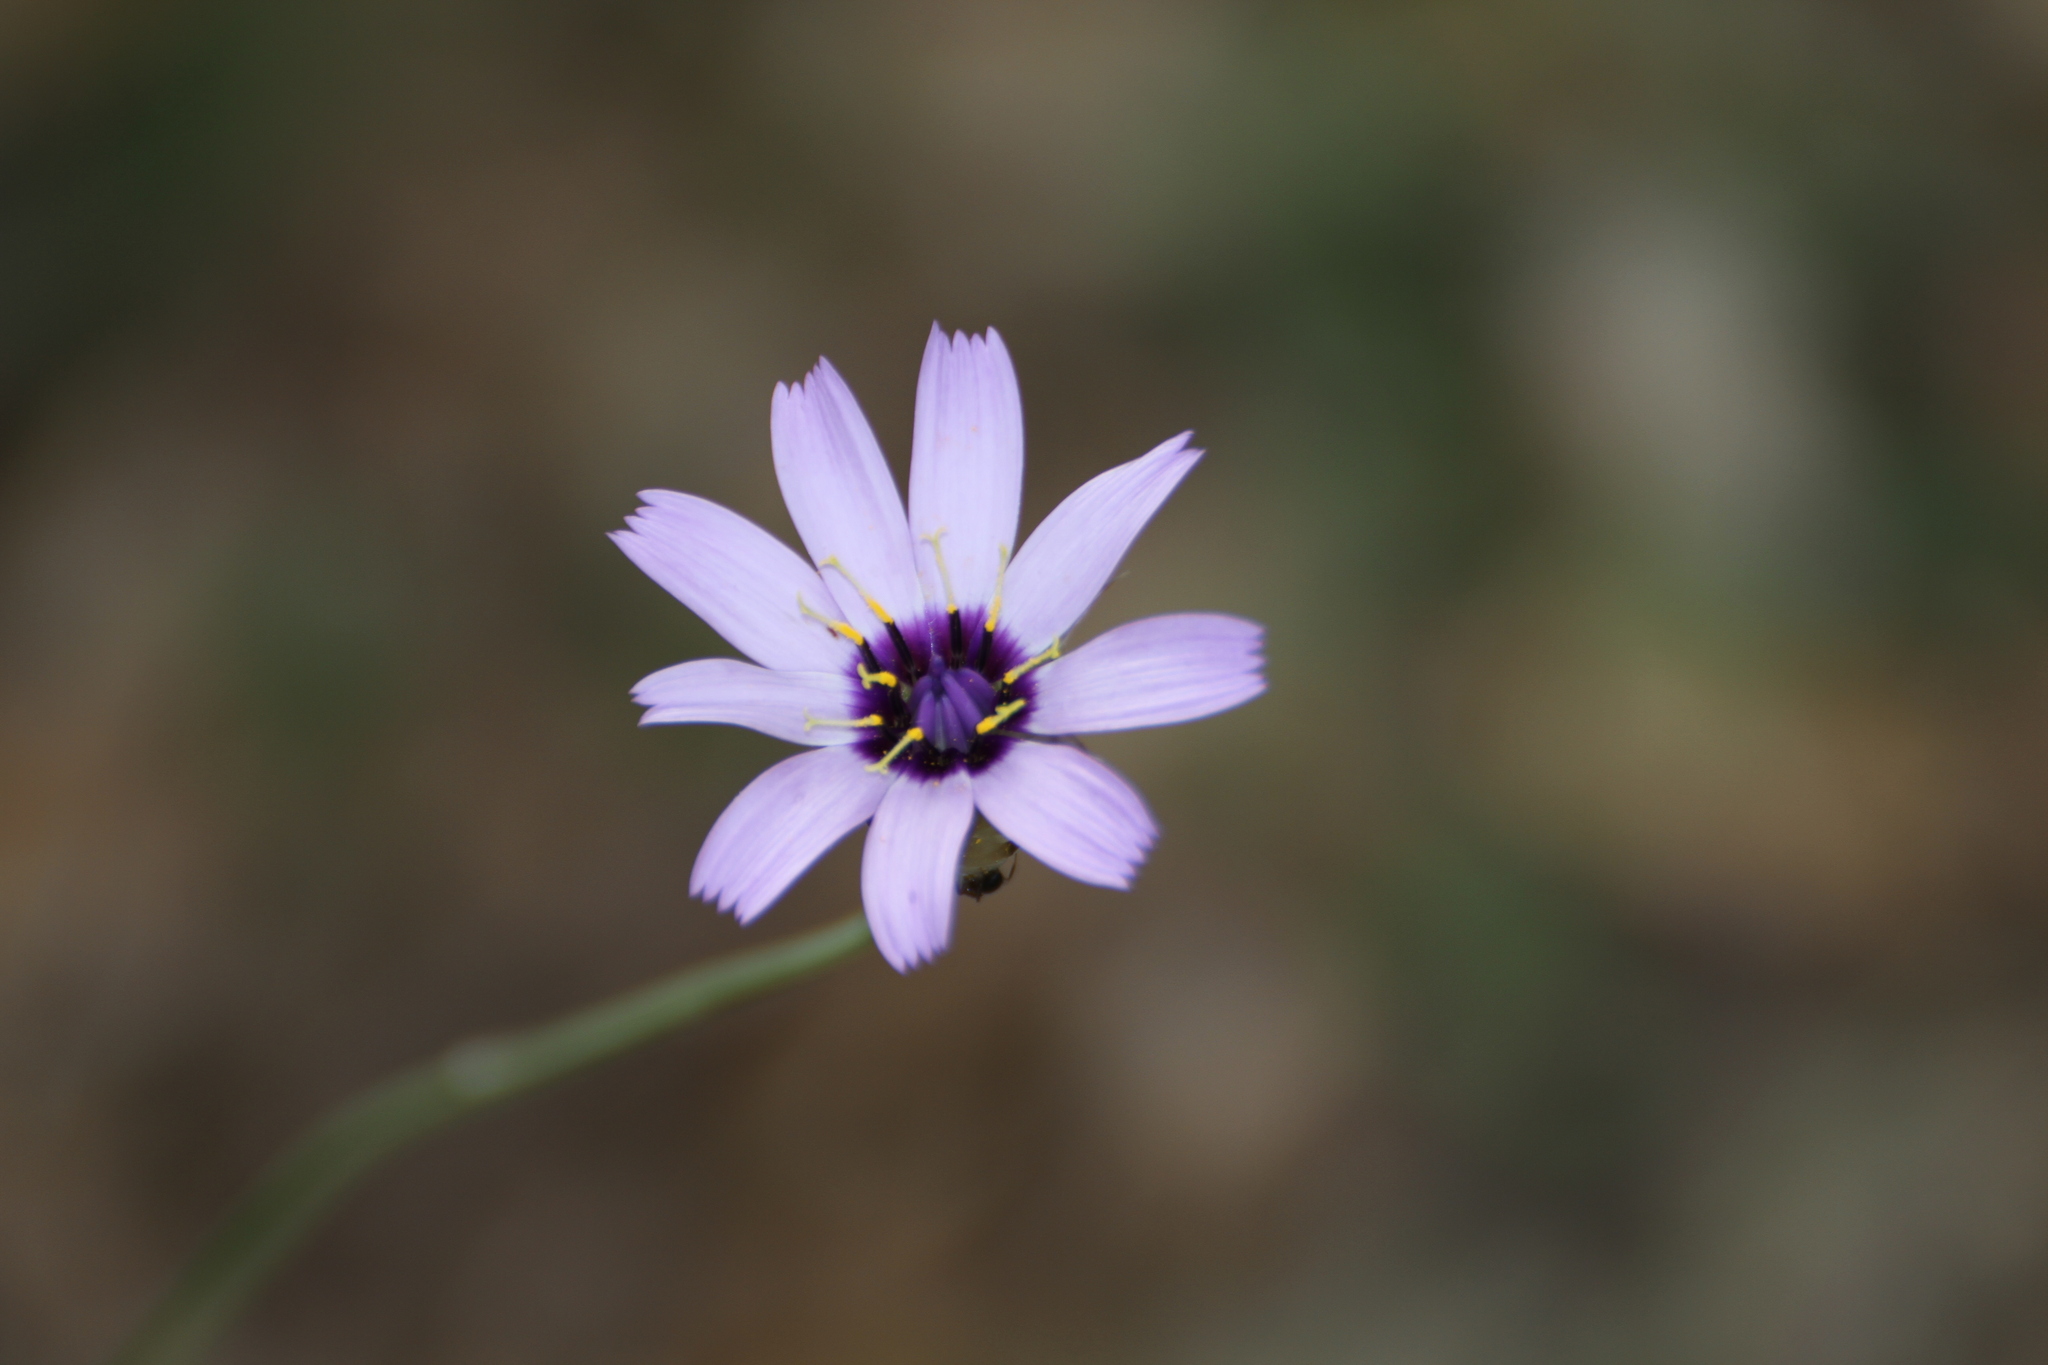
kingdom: Plantae
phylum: Tracheophyta
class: Magnoliopsida
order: Asterales
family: Asteraceae
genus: Catananche
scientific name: Catananche caerulea
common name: Blue cupidone
